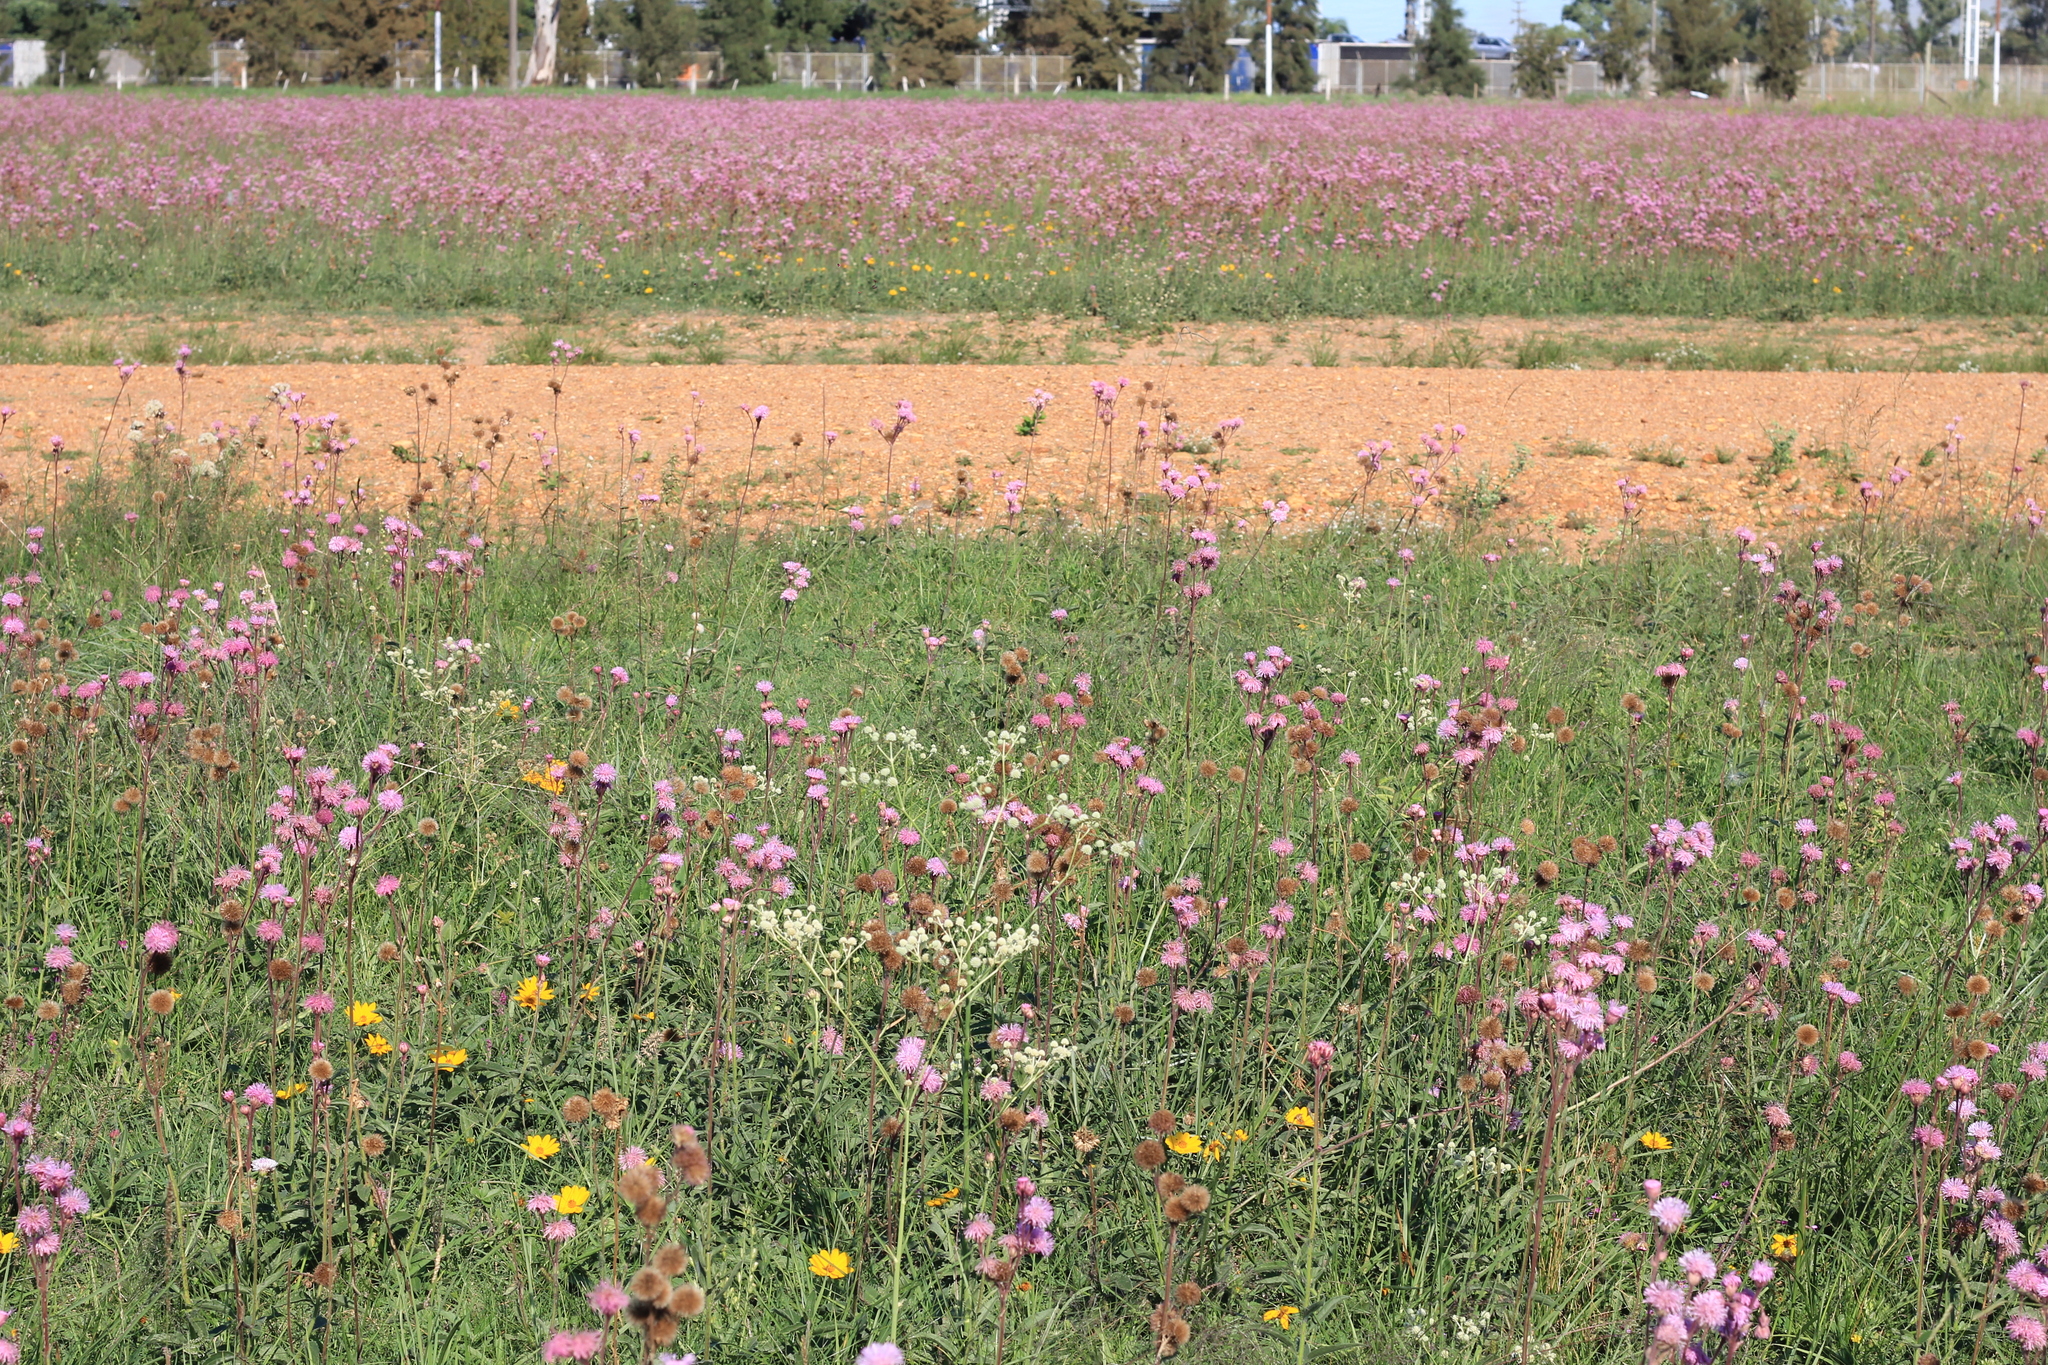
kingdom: Plantae
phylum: Tracheophyta
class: Magnoliopsida
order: Asterales
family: Asteraceae
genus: Campuloclinium
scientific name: Campuloclinium macrocephalum
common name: Pompomweed
